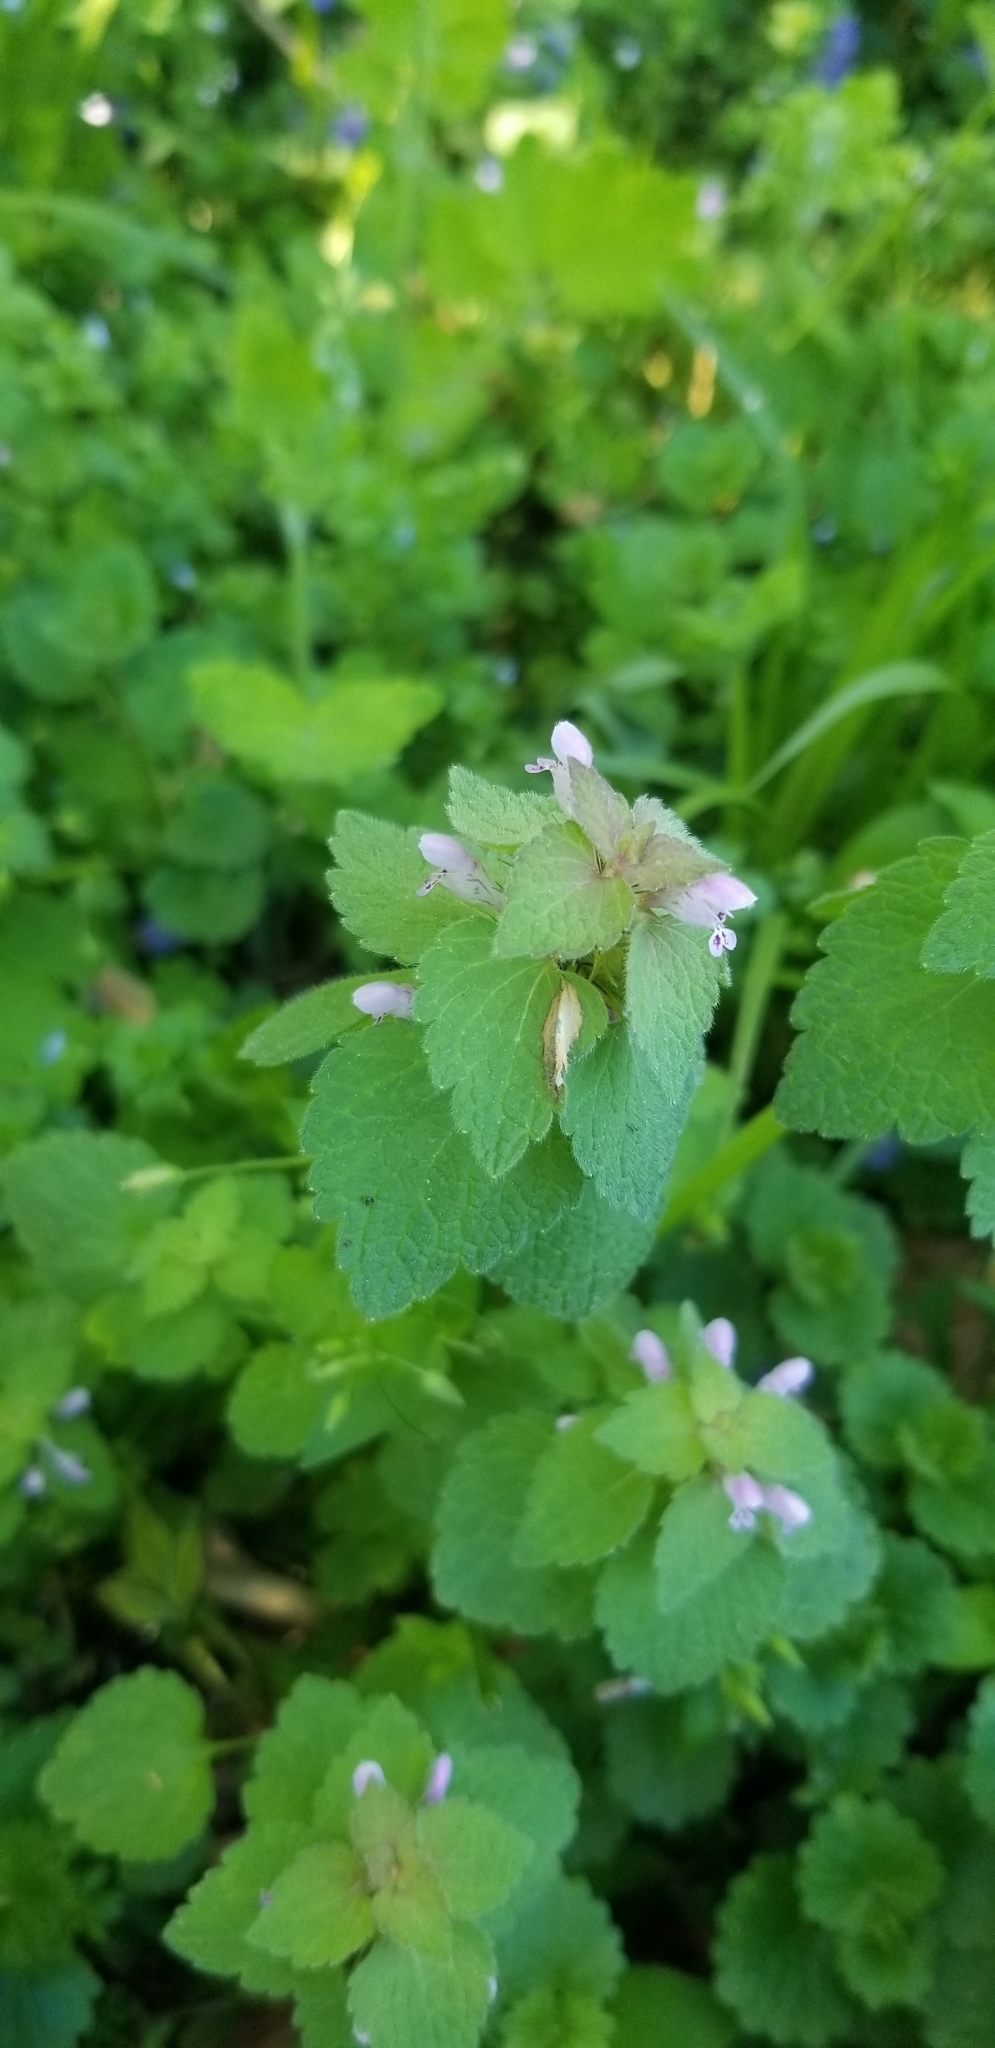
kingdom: Plantae
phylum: Tracheophyta
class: Magnoliopsida
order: Lamiales
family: Lamiaceae
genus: Lamium
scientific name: Lamium purpureum
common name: Red dead-nettle
